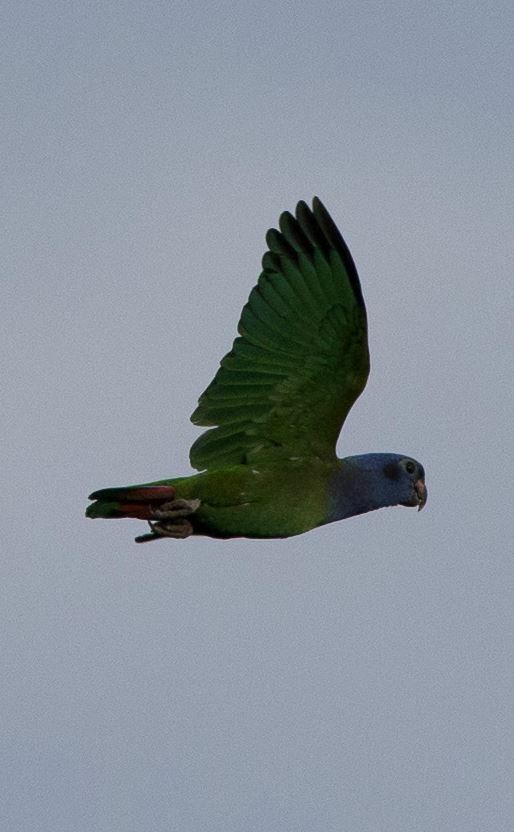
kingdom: Animalia
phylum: Chordata
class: Aves
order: Psittaciformes
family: Psittacidae
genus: Pionus
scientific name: Pionus menstruus
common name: Blue-headed parrot
